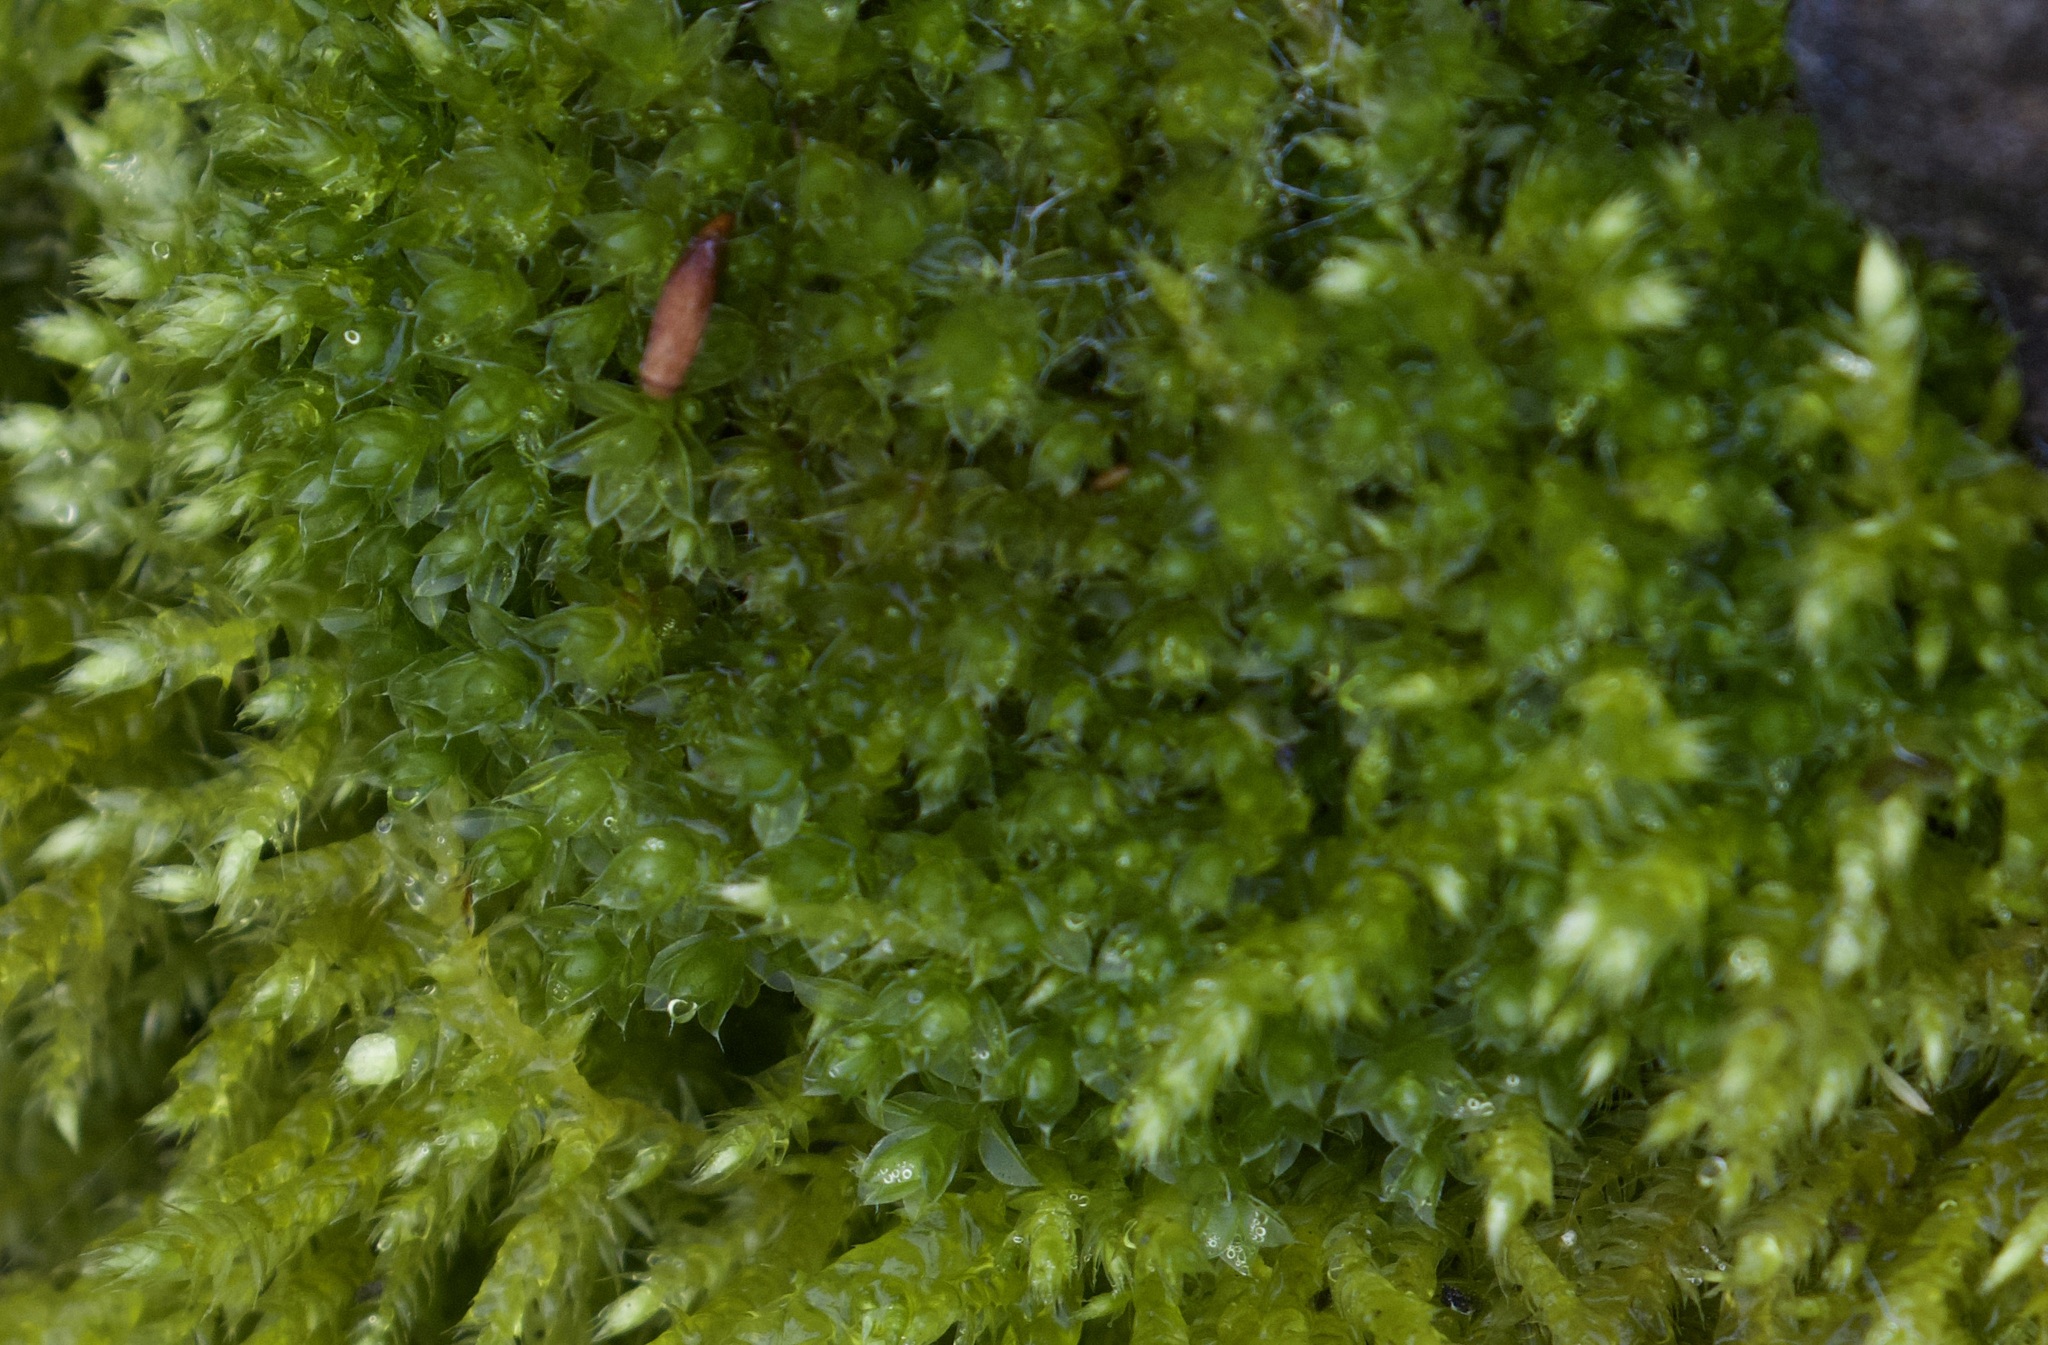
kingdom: Plantae
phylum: Bryophyta
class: Bryopsida
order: Bryales
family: Bryaceae
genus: Rosulabryum
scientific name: Rosulabryum capillare
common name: Capillary thread-moss
